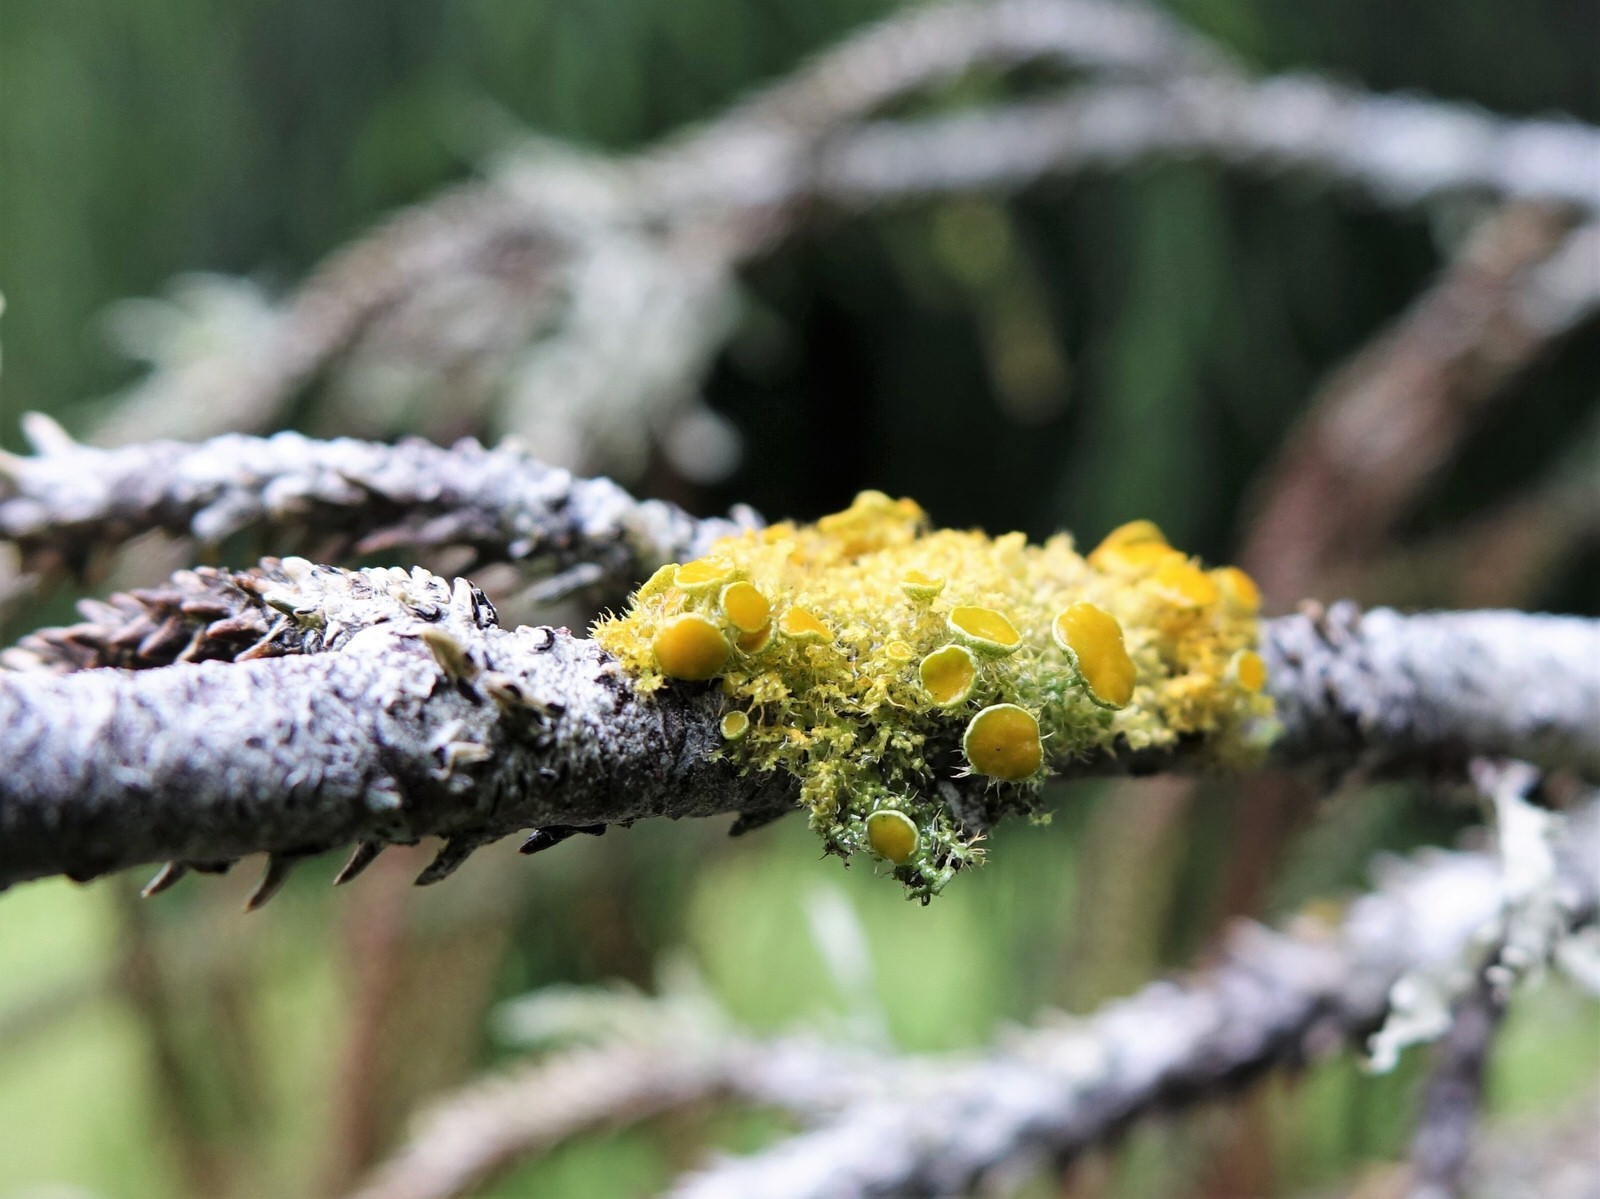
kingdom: Fungi
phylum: Ascomycota
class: Lecanoromycetes
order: Teloschistales
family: Teloschistaceae
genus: Teloschistes
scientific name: Teloschistes sieberianus
